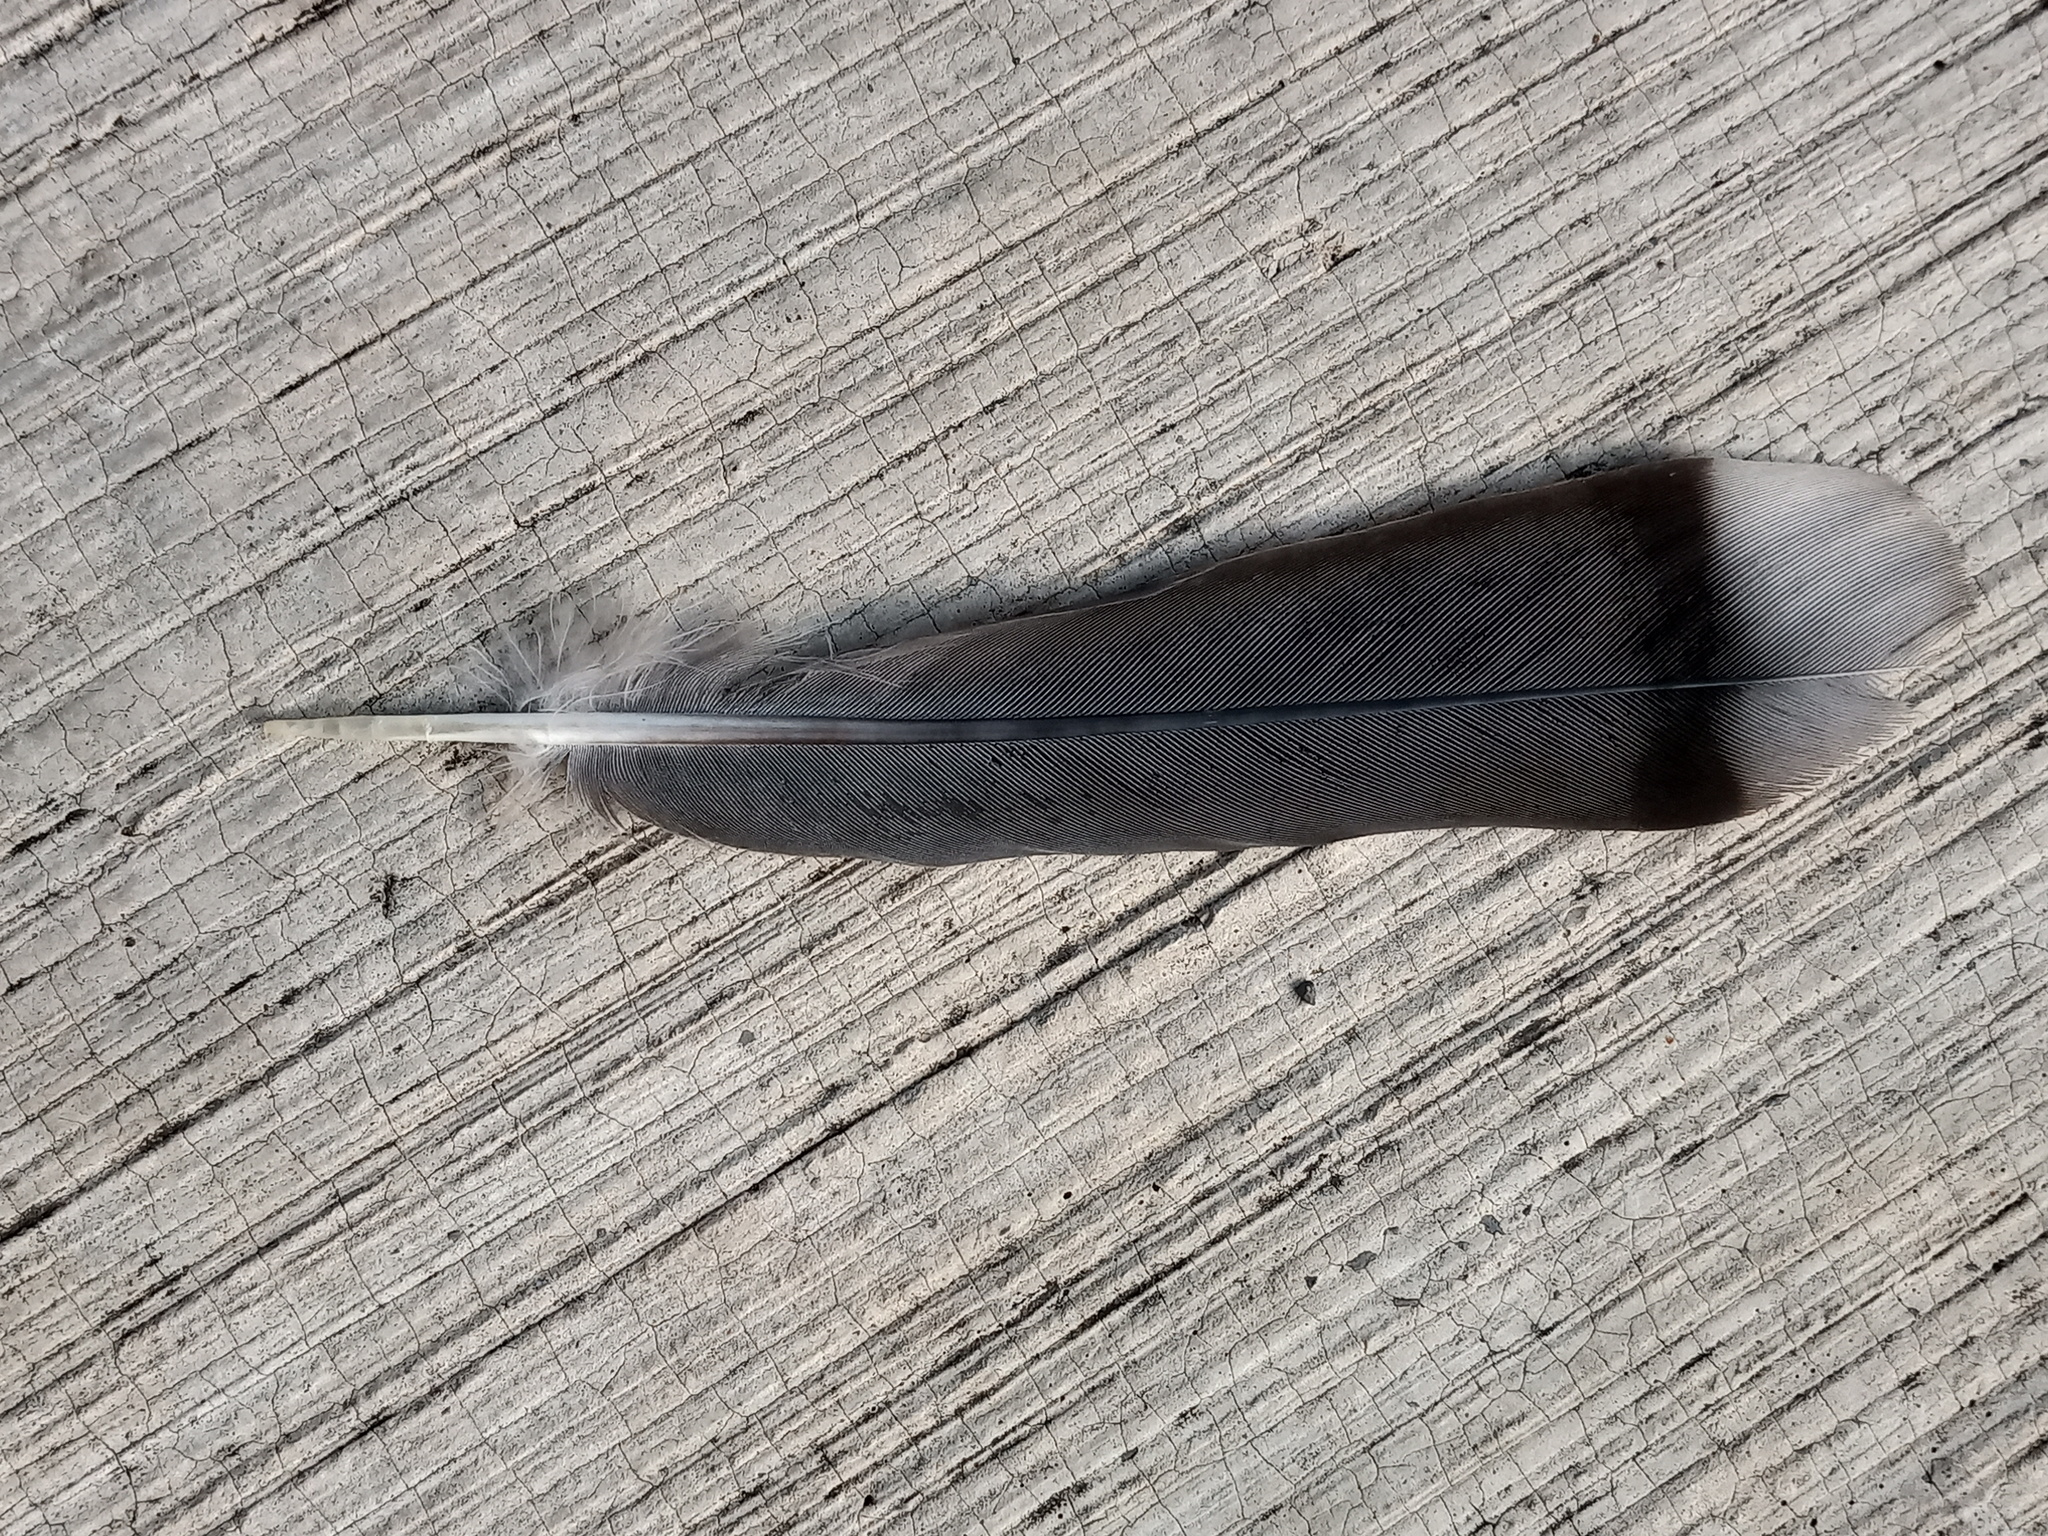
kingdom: Animalia
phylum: Chordata
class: Aves
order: Columbiformes
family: Columbidae
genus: Zenaida
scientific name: Zenaida asiatica
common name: White-winged dove
